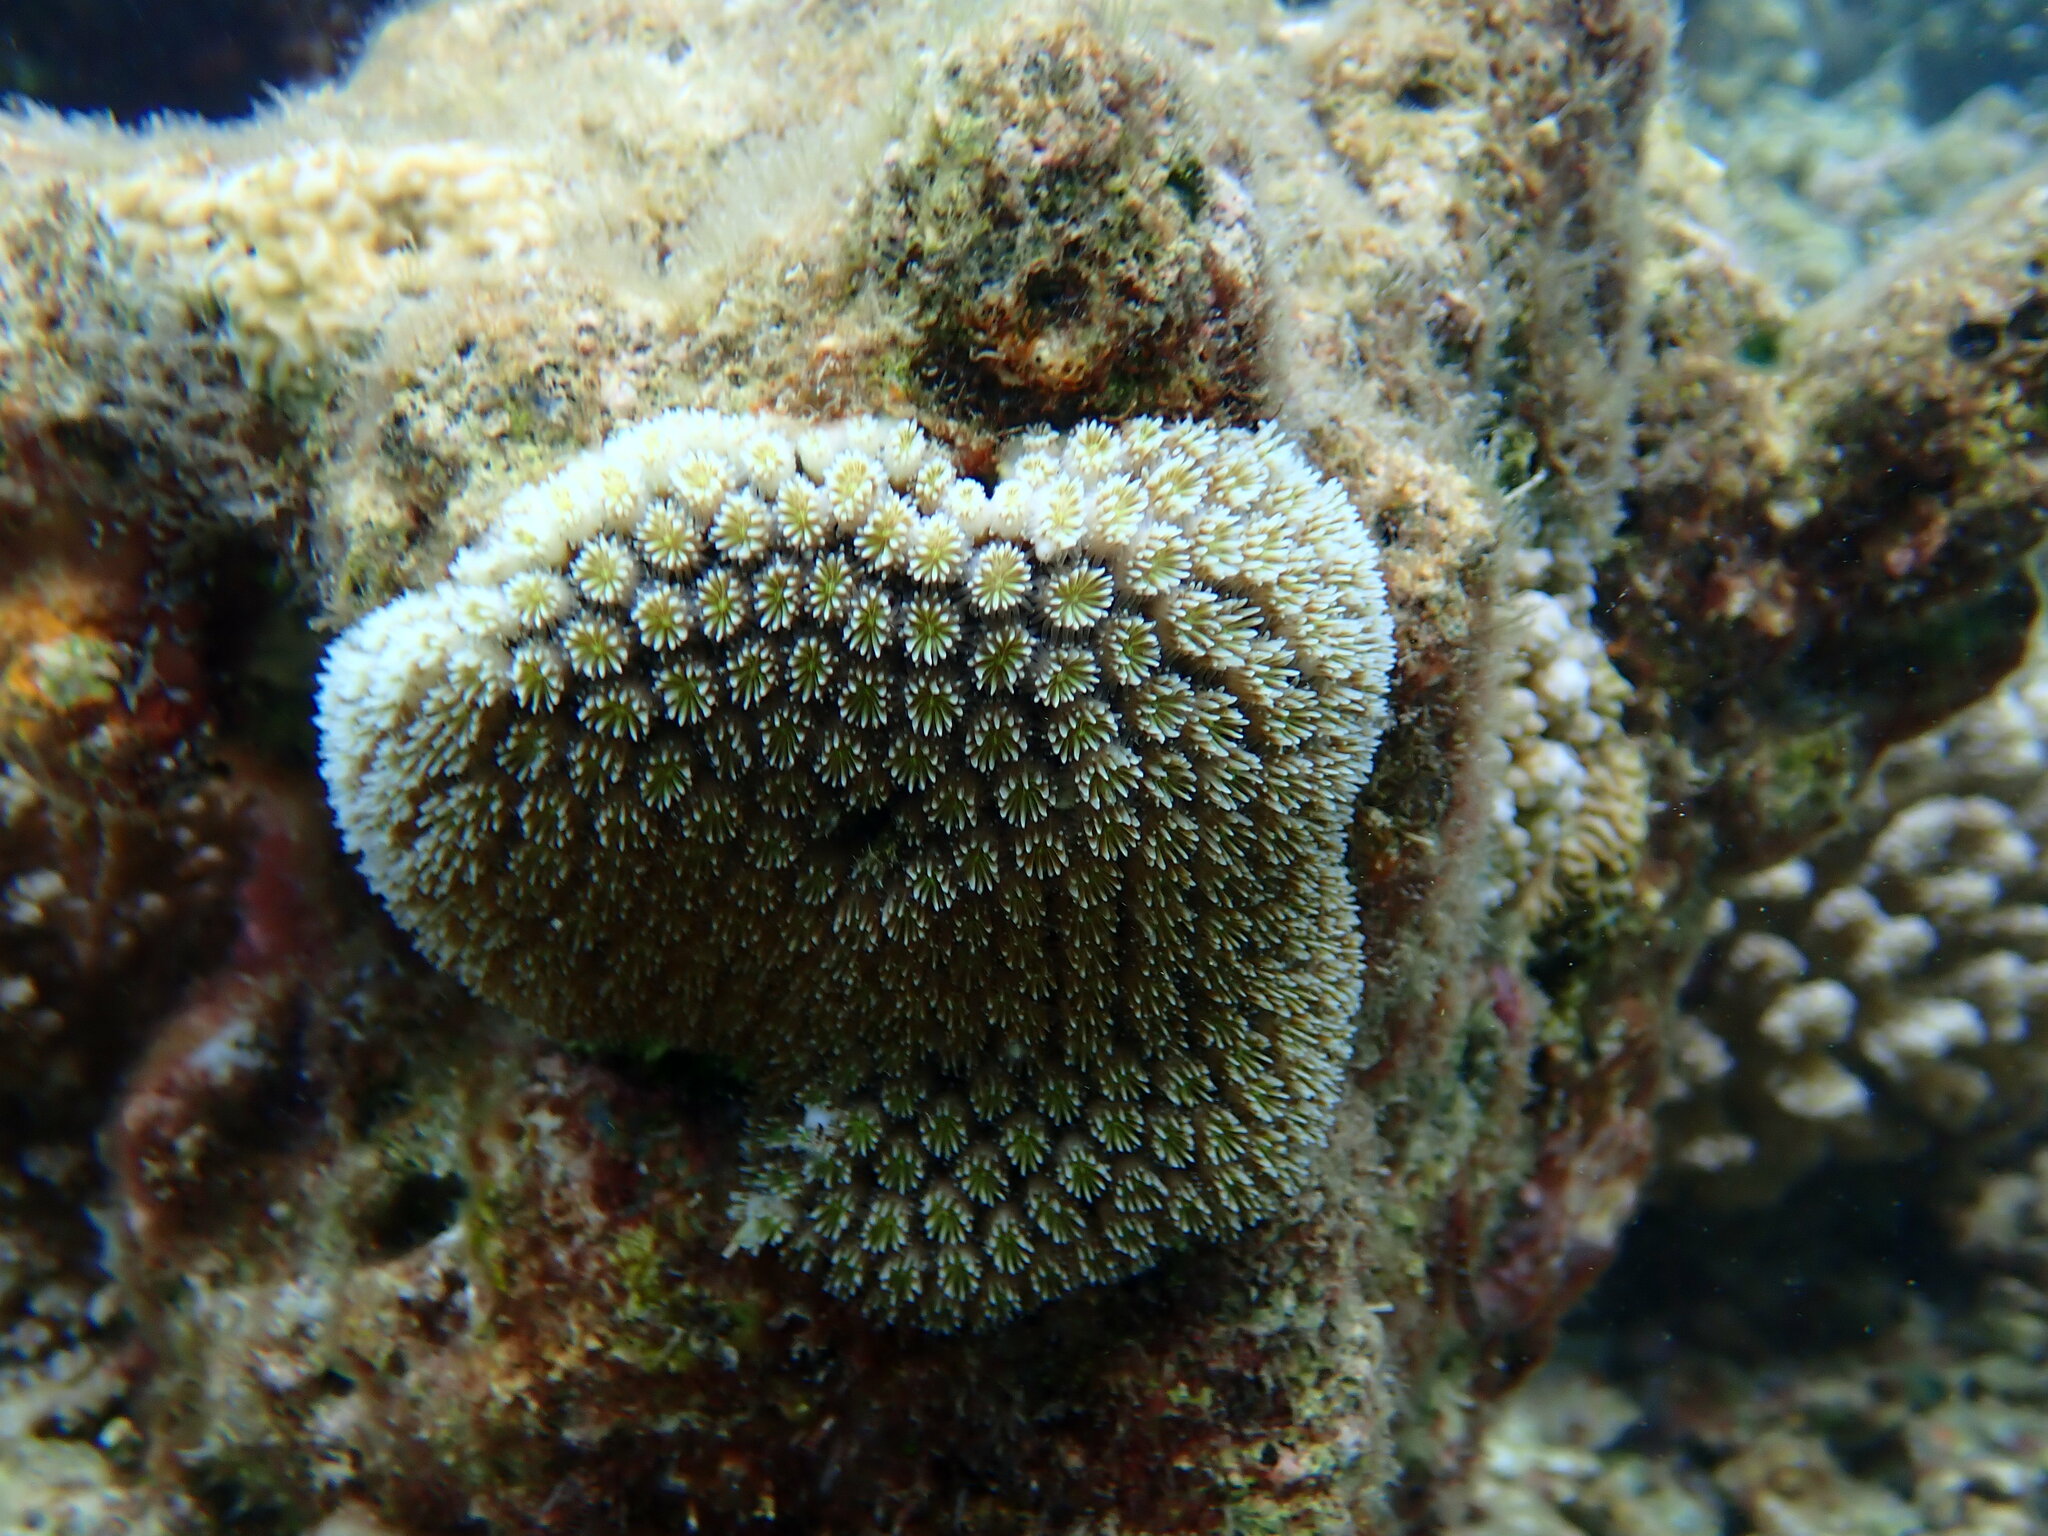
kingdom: Animalia
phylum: Cnidaria
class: Anthozoa
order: Scleractinia
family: Euphylliidae
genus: Galaxea
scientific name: Galaxea fascicularis
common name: Octopus coral
